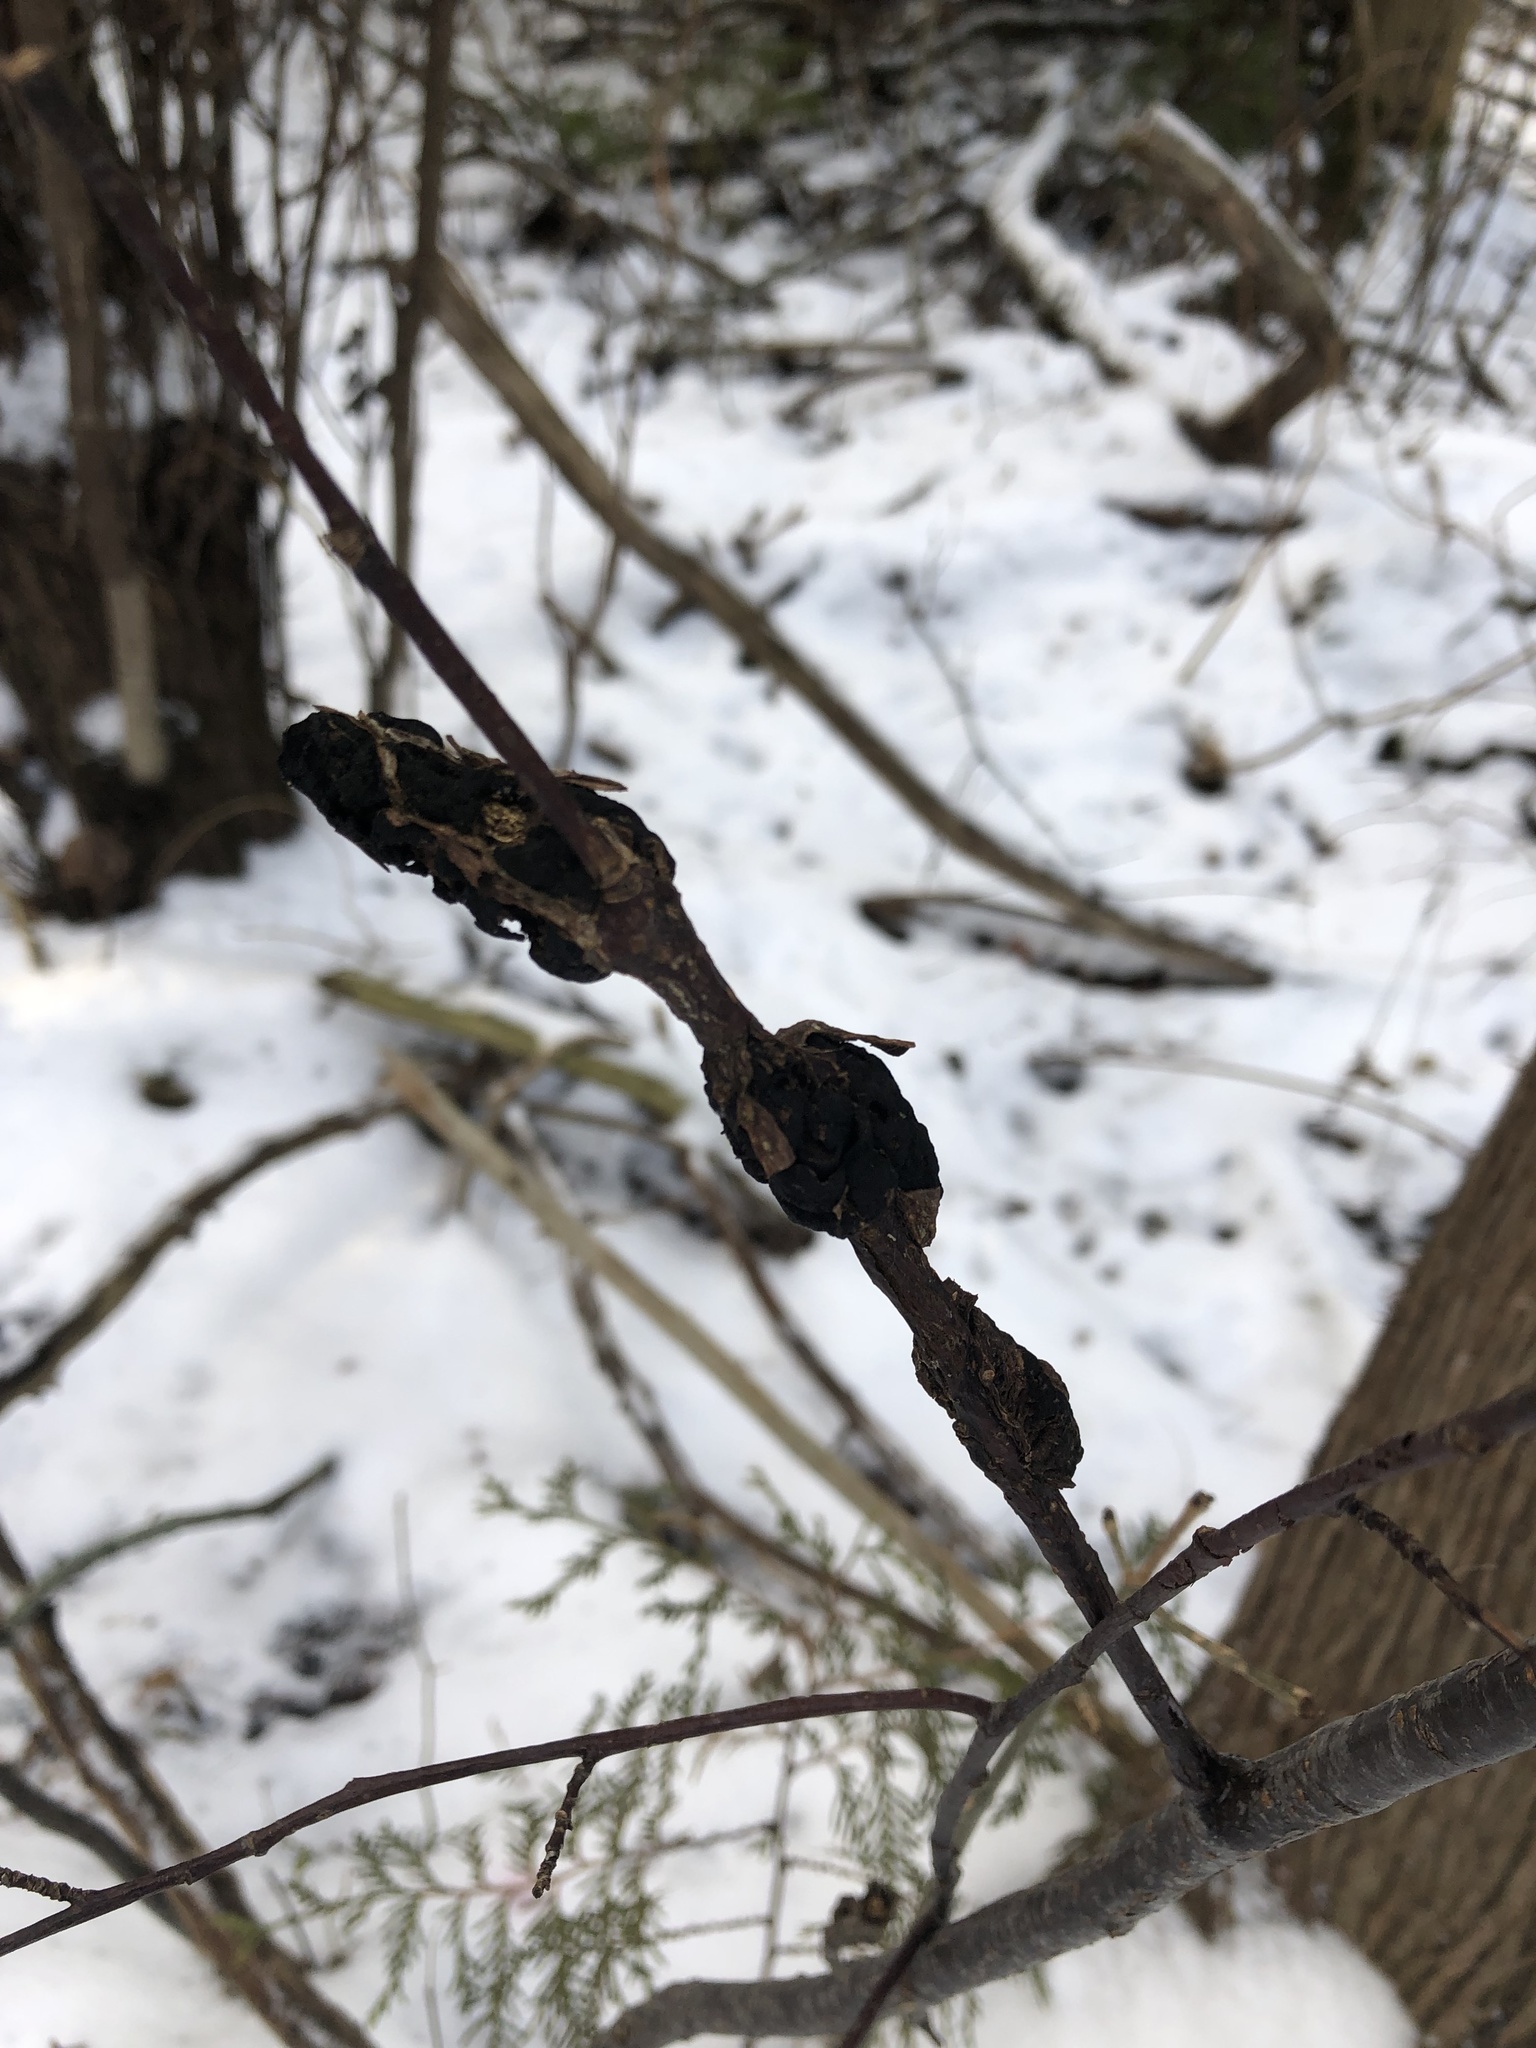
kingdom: Fungi
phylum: Ascomycota
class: Dothideomycetes
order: Venturiales
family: Venturiaceae
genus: Apiosporina
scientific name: Apiosporina morbosa
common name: Black knot
